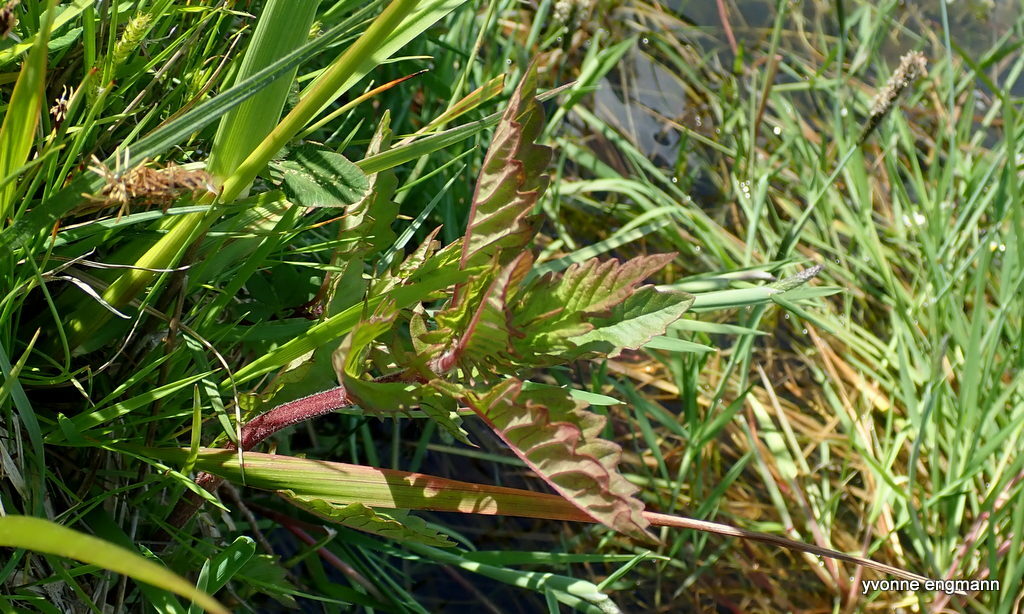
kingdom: Plantae
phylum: Tracheophyta
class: Magnoliopsida
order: Lamiales
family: Lamiaceae
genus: Lycopus
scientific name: Lycopus europaeus
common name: European bugleweed
